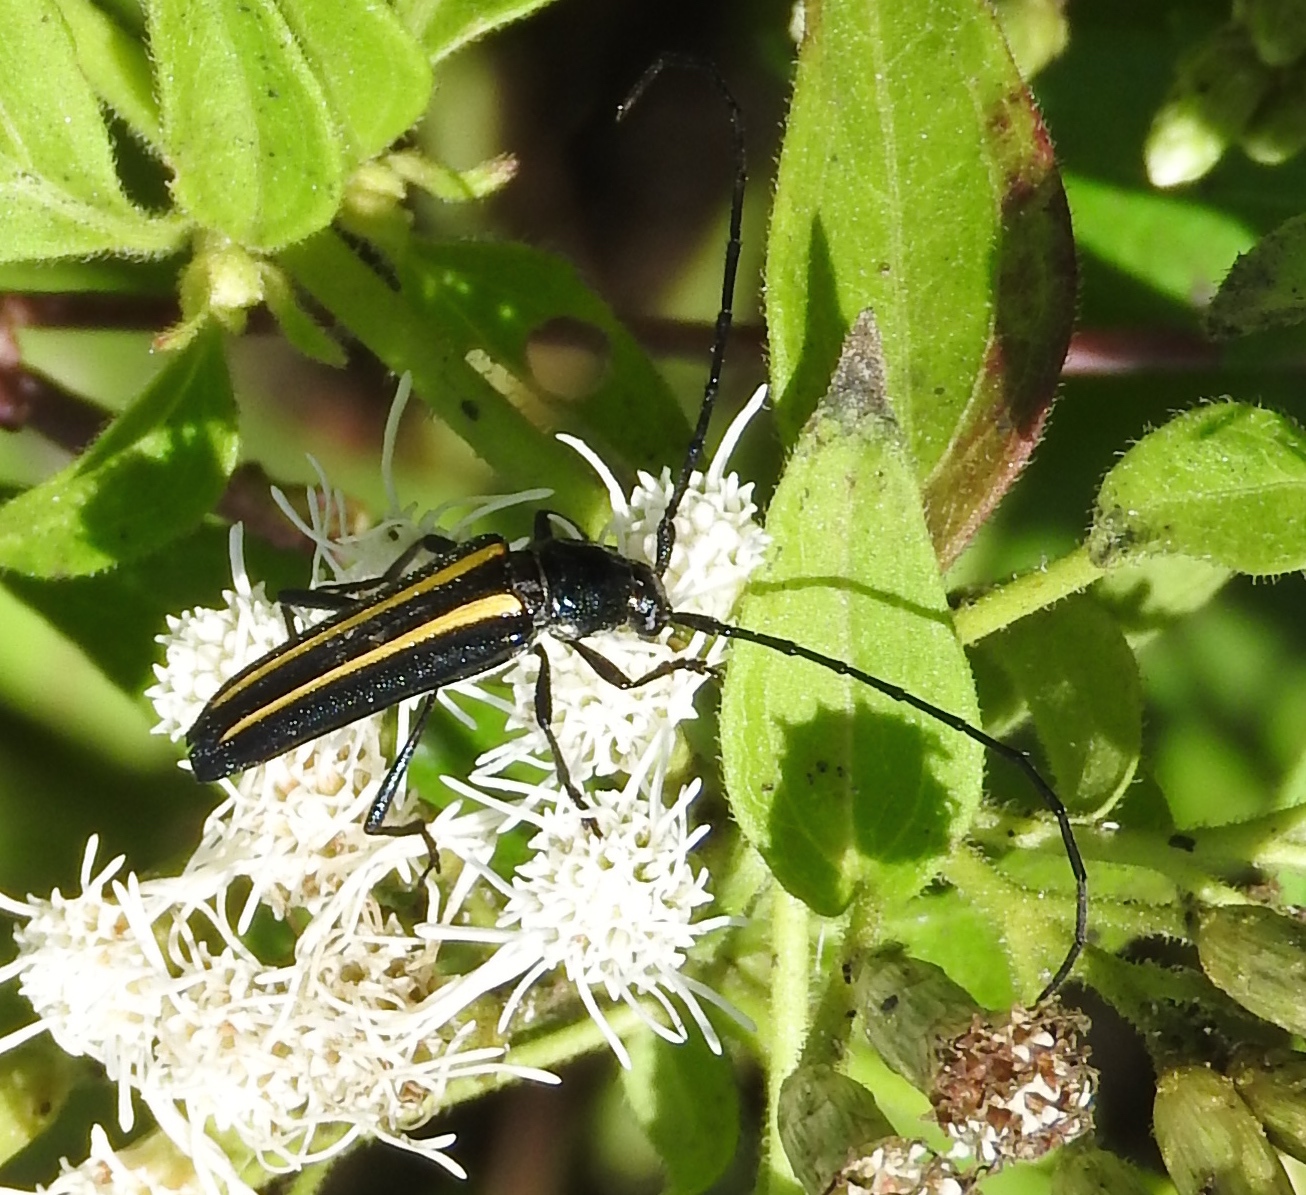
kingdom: Animalia
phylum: Arthropoda
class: Insecta
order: Coleoptera
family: Cerambycidae
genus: Lophalia
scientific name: Lophalia prolata
